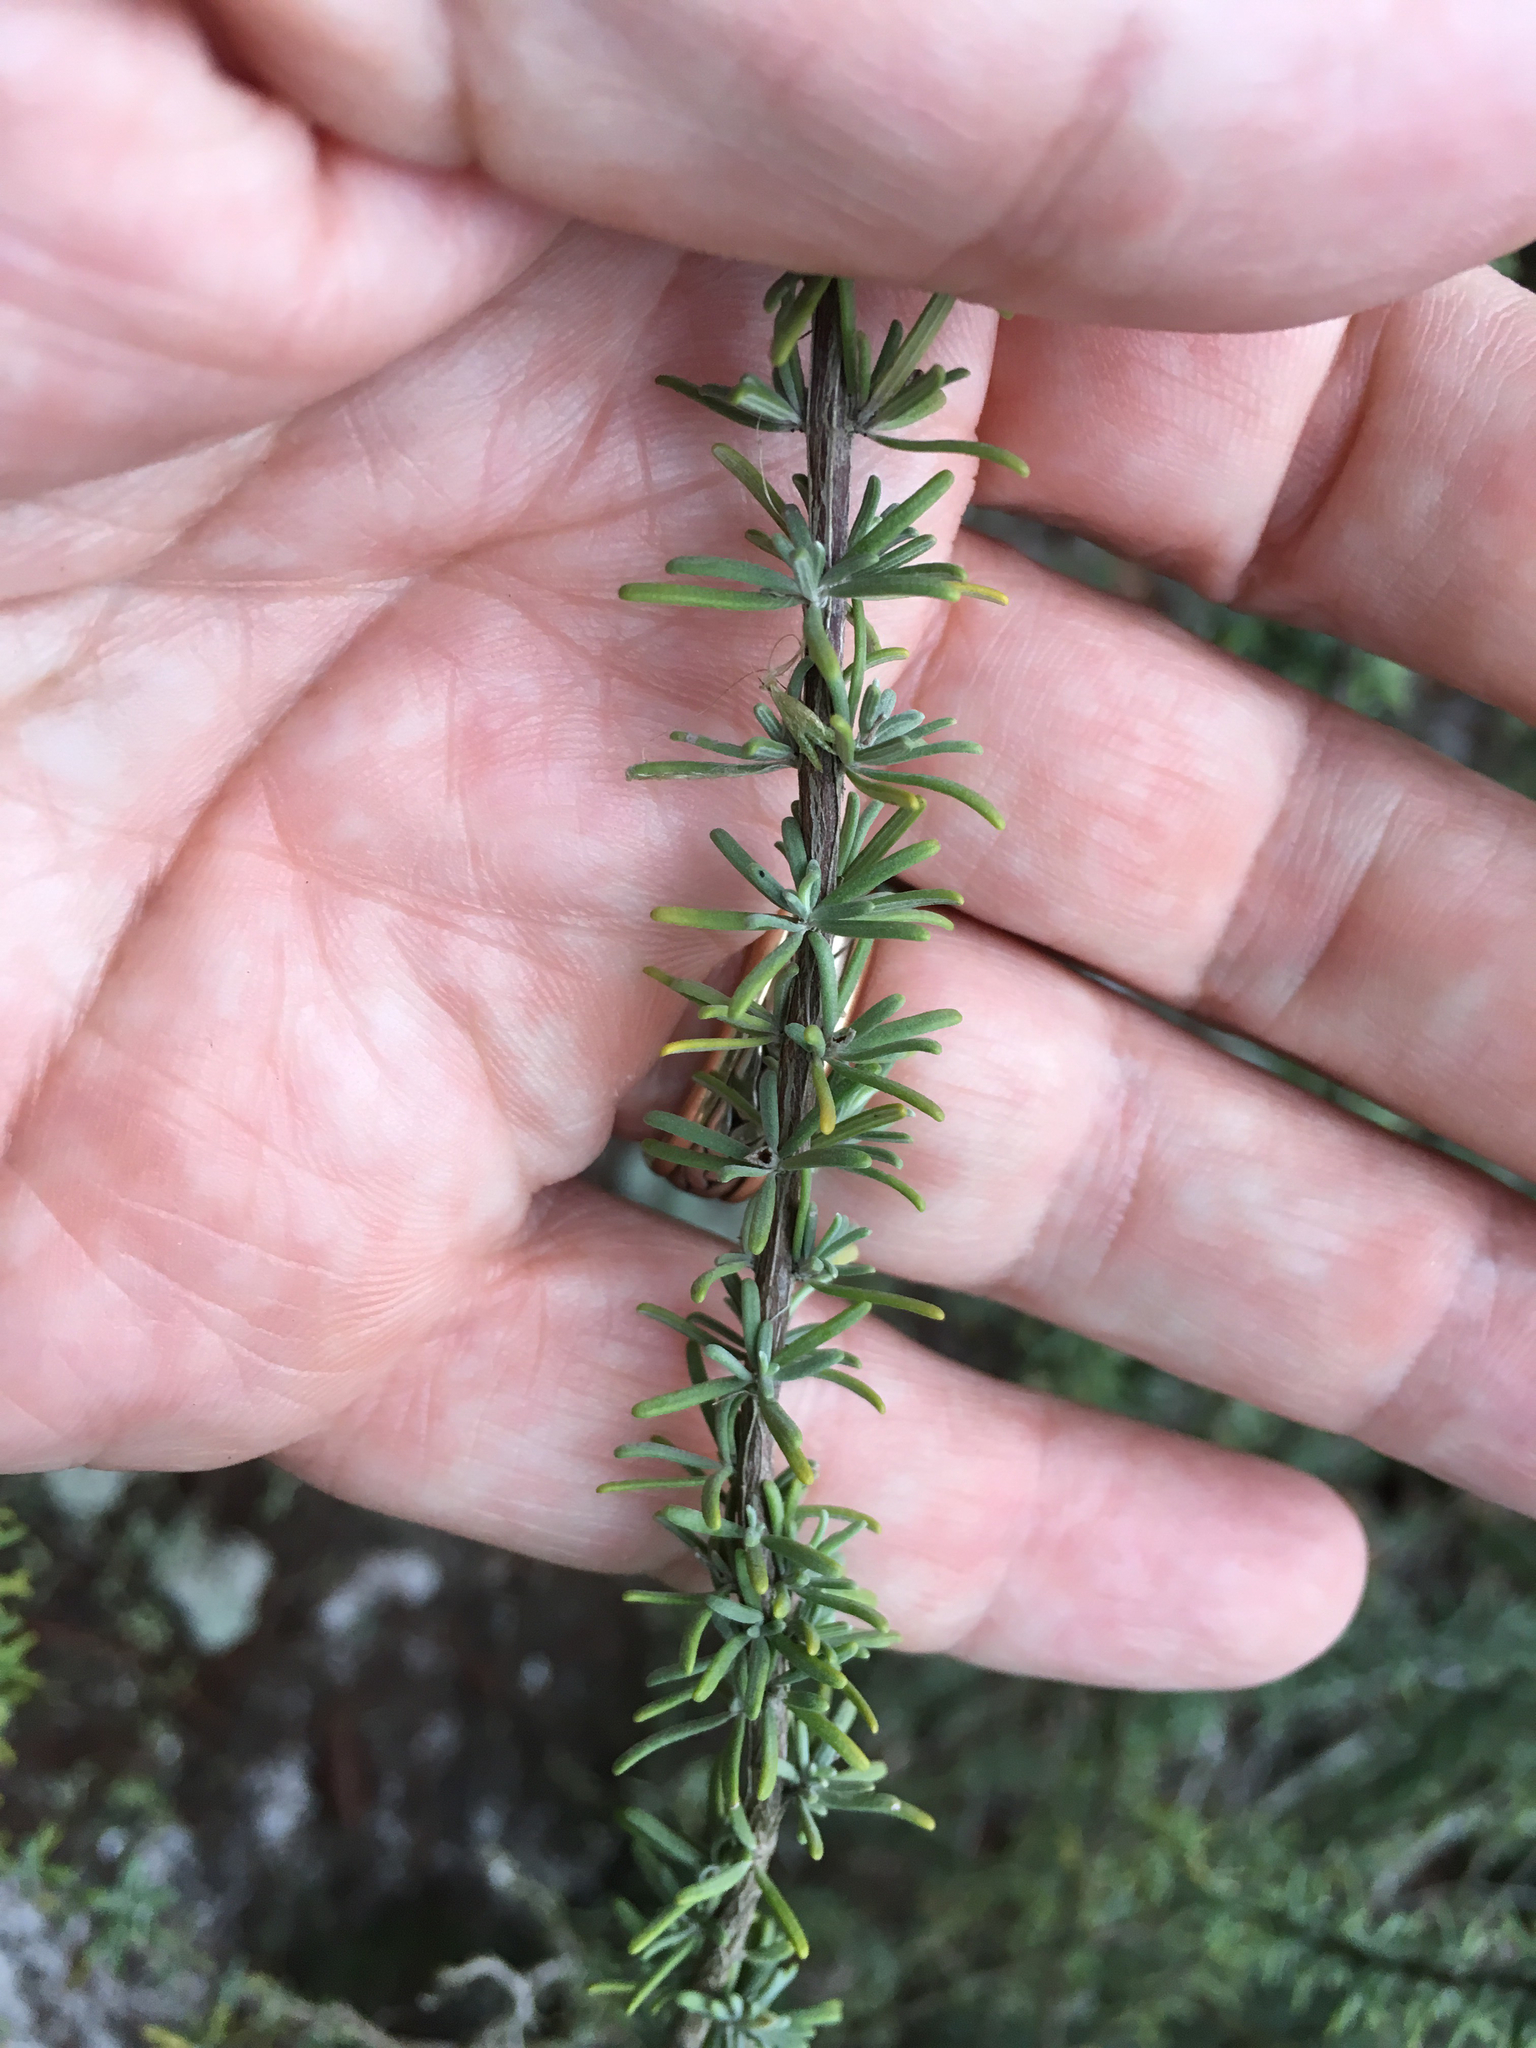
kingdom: Plantae
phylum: Tracheophyta
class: Magnoliopsida
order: Lamiales
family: Lamiaceae
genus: Conradina
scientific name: Conradina canescens
